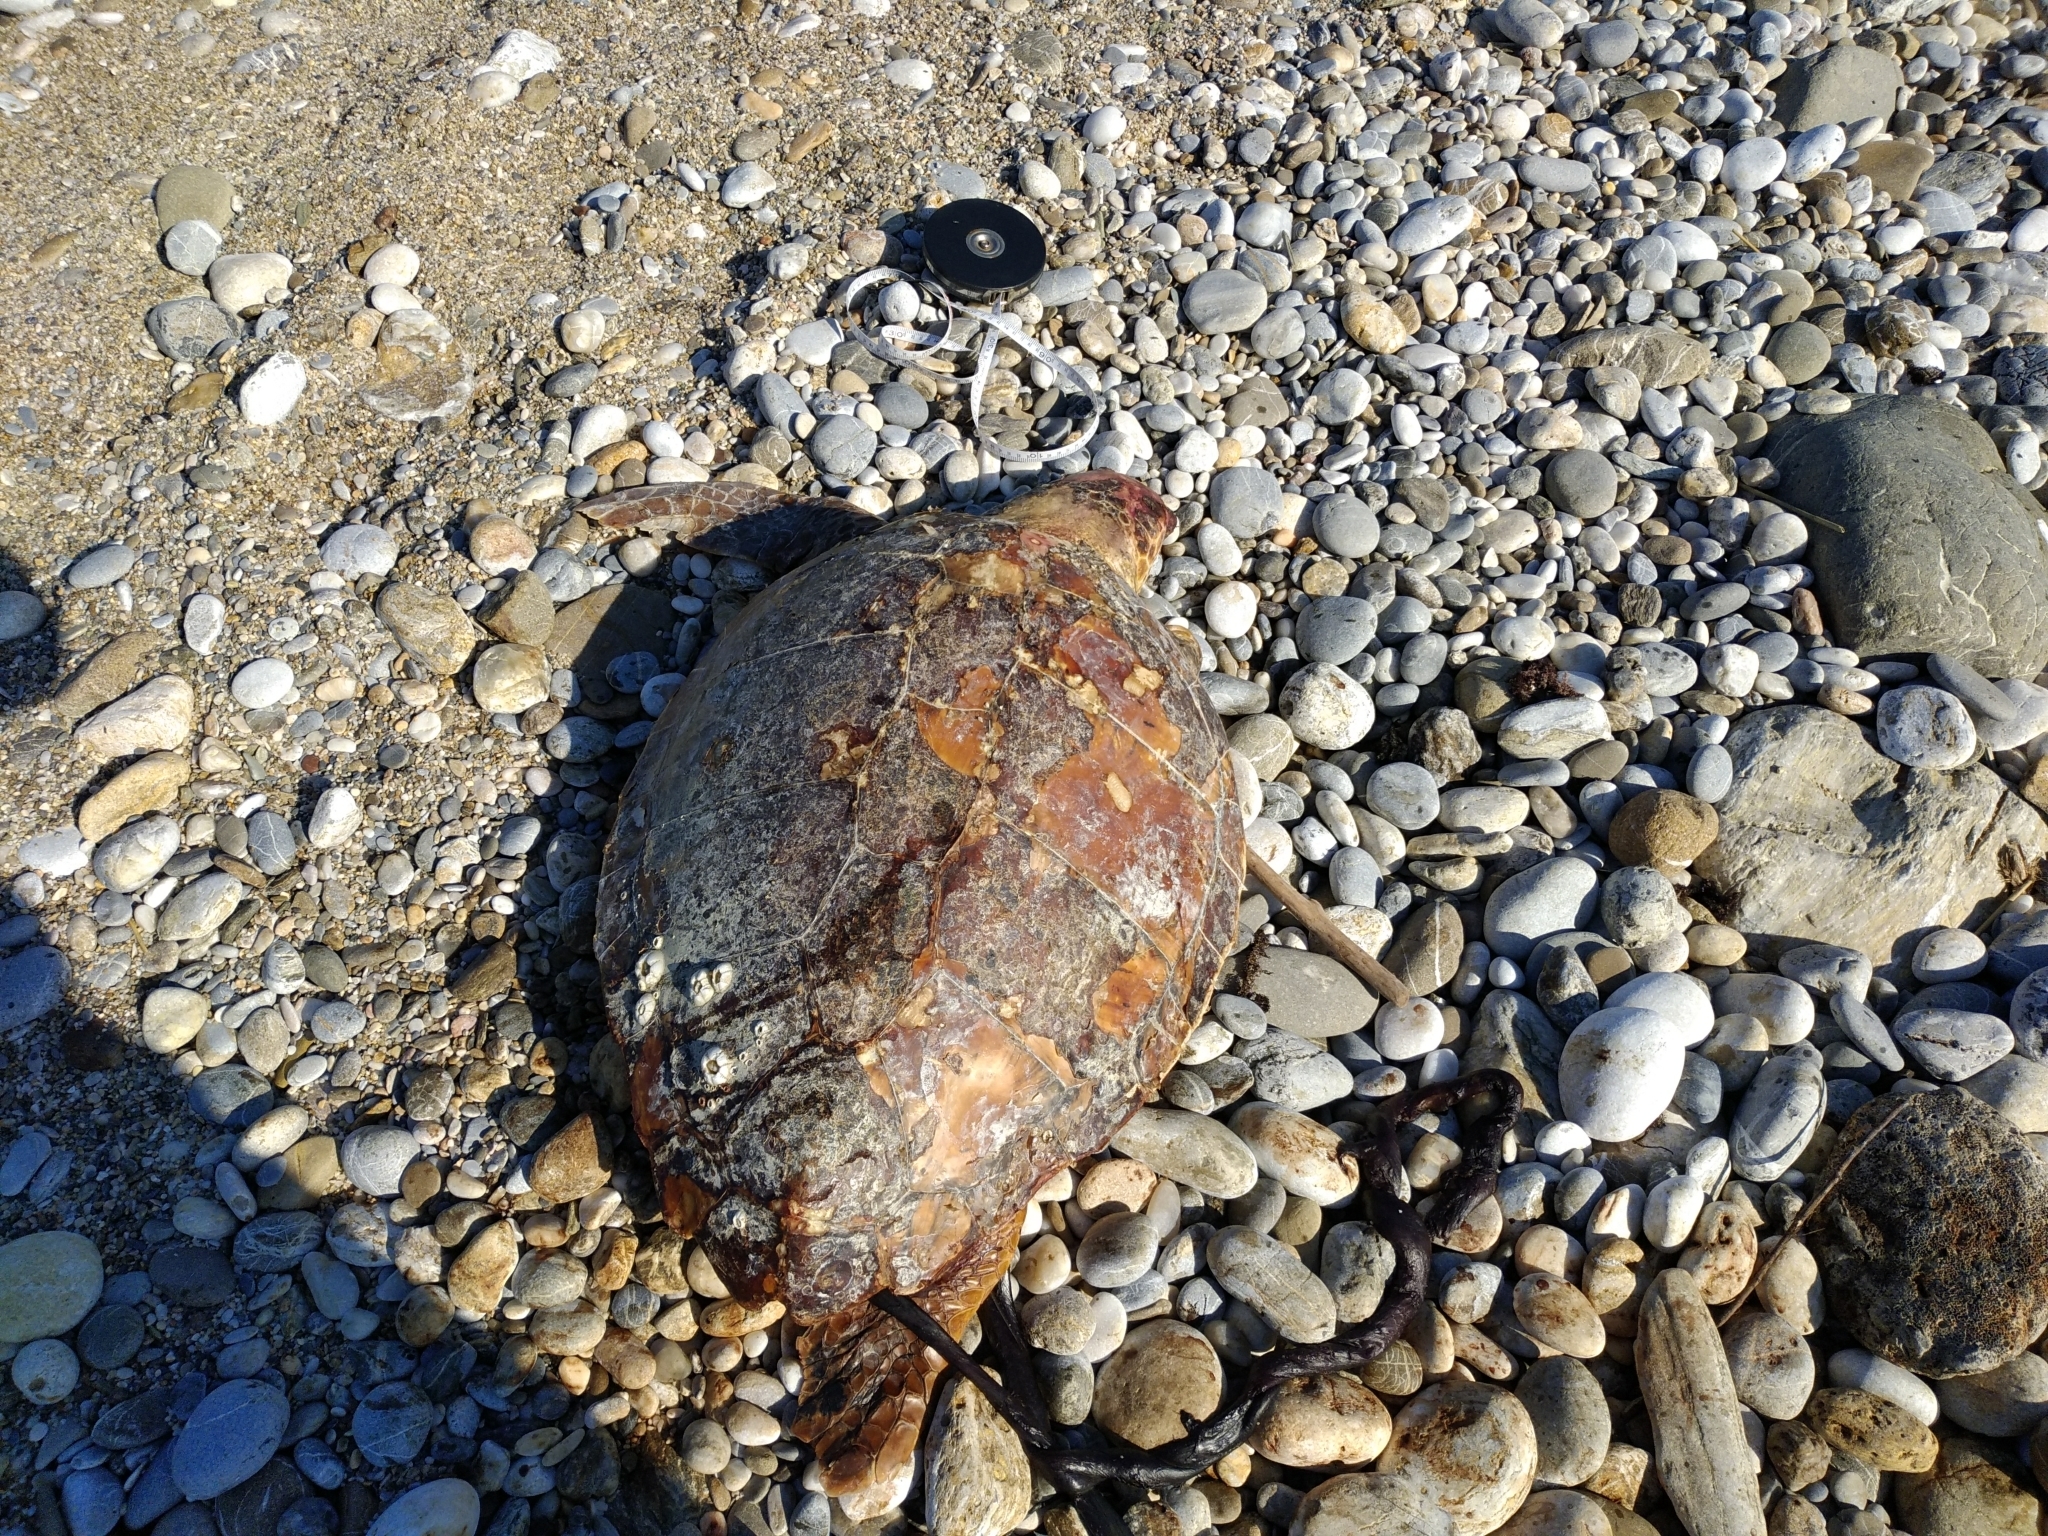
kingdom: Animalia
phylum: Chordata
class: Testudines
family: Cheloniidae
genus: Caretta
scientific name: Caretta caretta
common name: Loggerhead sea turtle
